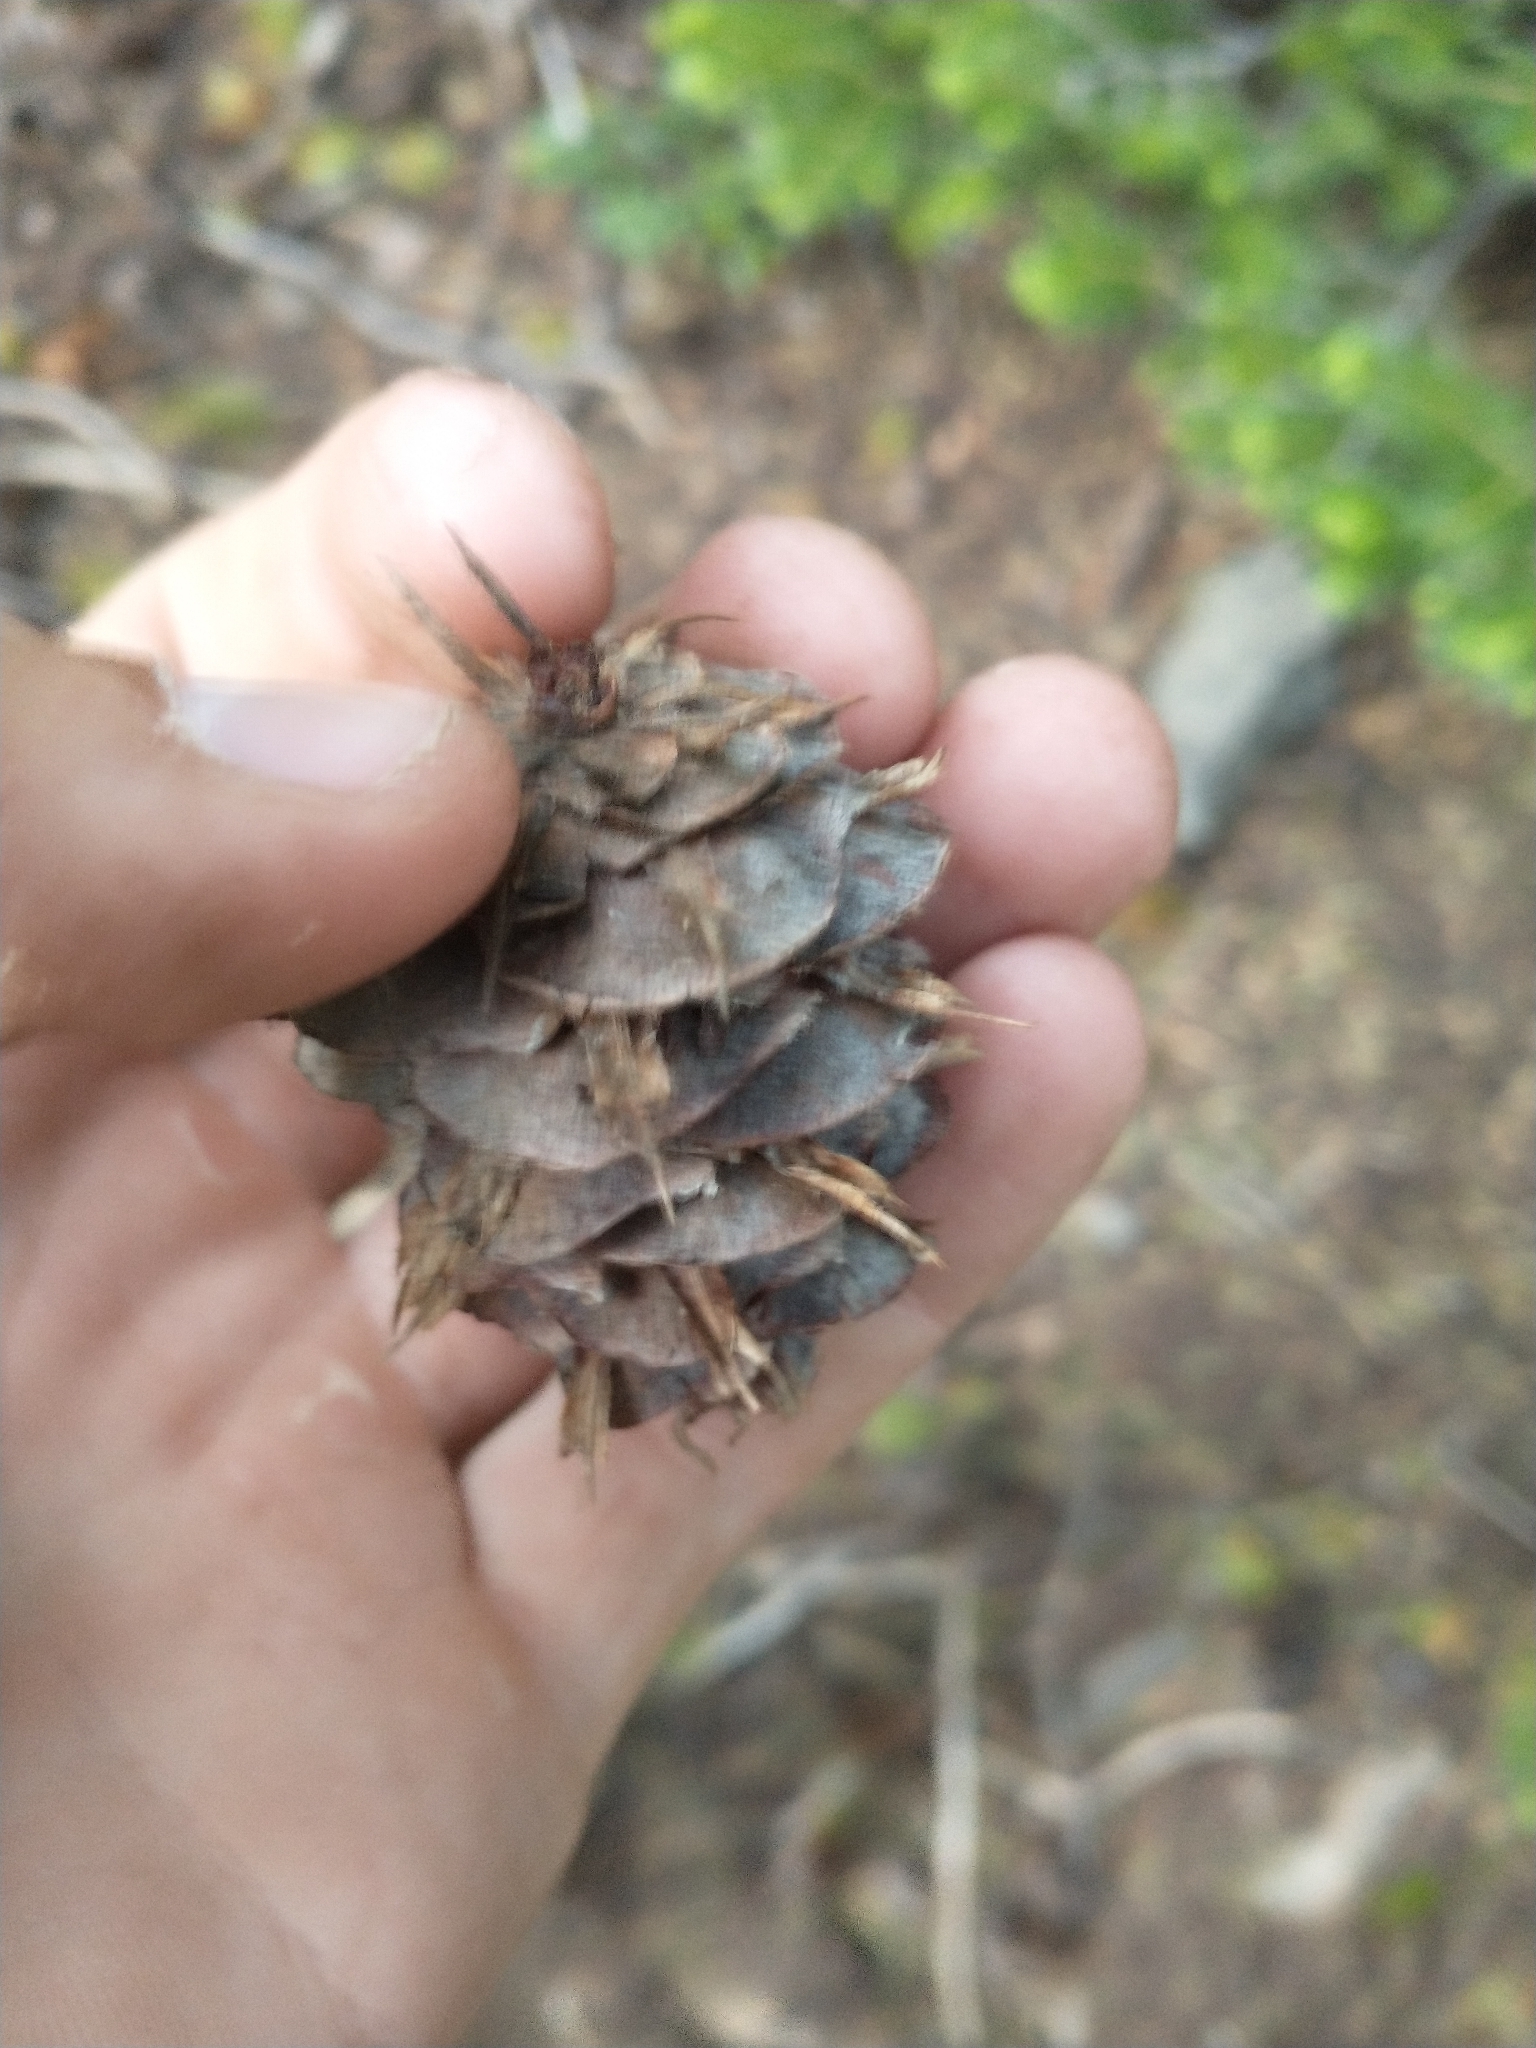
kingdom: Plantae
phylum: Tracheophyta
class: Pinopsida
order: Pinales
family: Pinaceae
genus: Pseudotsuga
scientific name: Pseudotsuga menziesii
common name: Douglas fir
